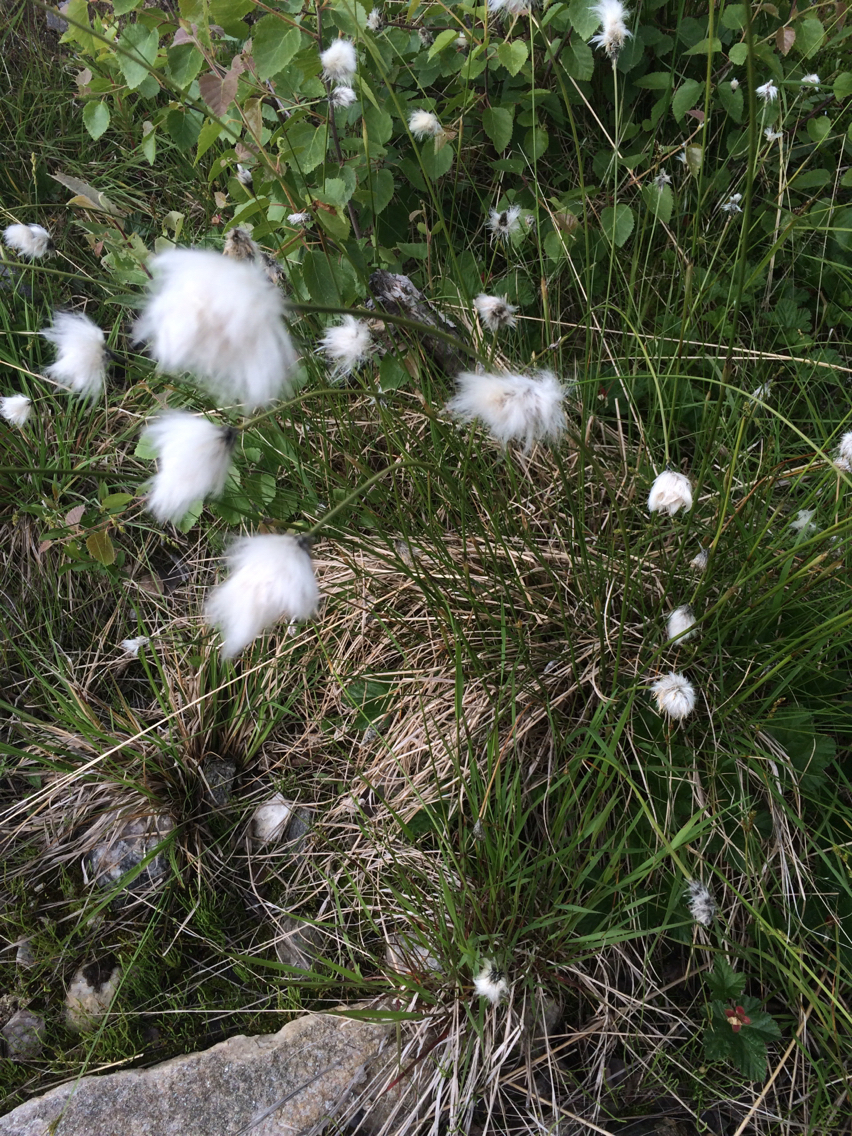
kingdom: Plantae
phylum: Tracheophyta
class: Liliopsida
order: Poales
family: Cyperaceae
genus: Eriophorum
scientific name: Eriophorum vaginatum
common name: Hare's-tail cottongrass
